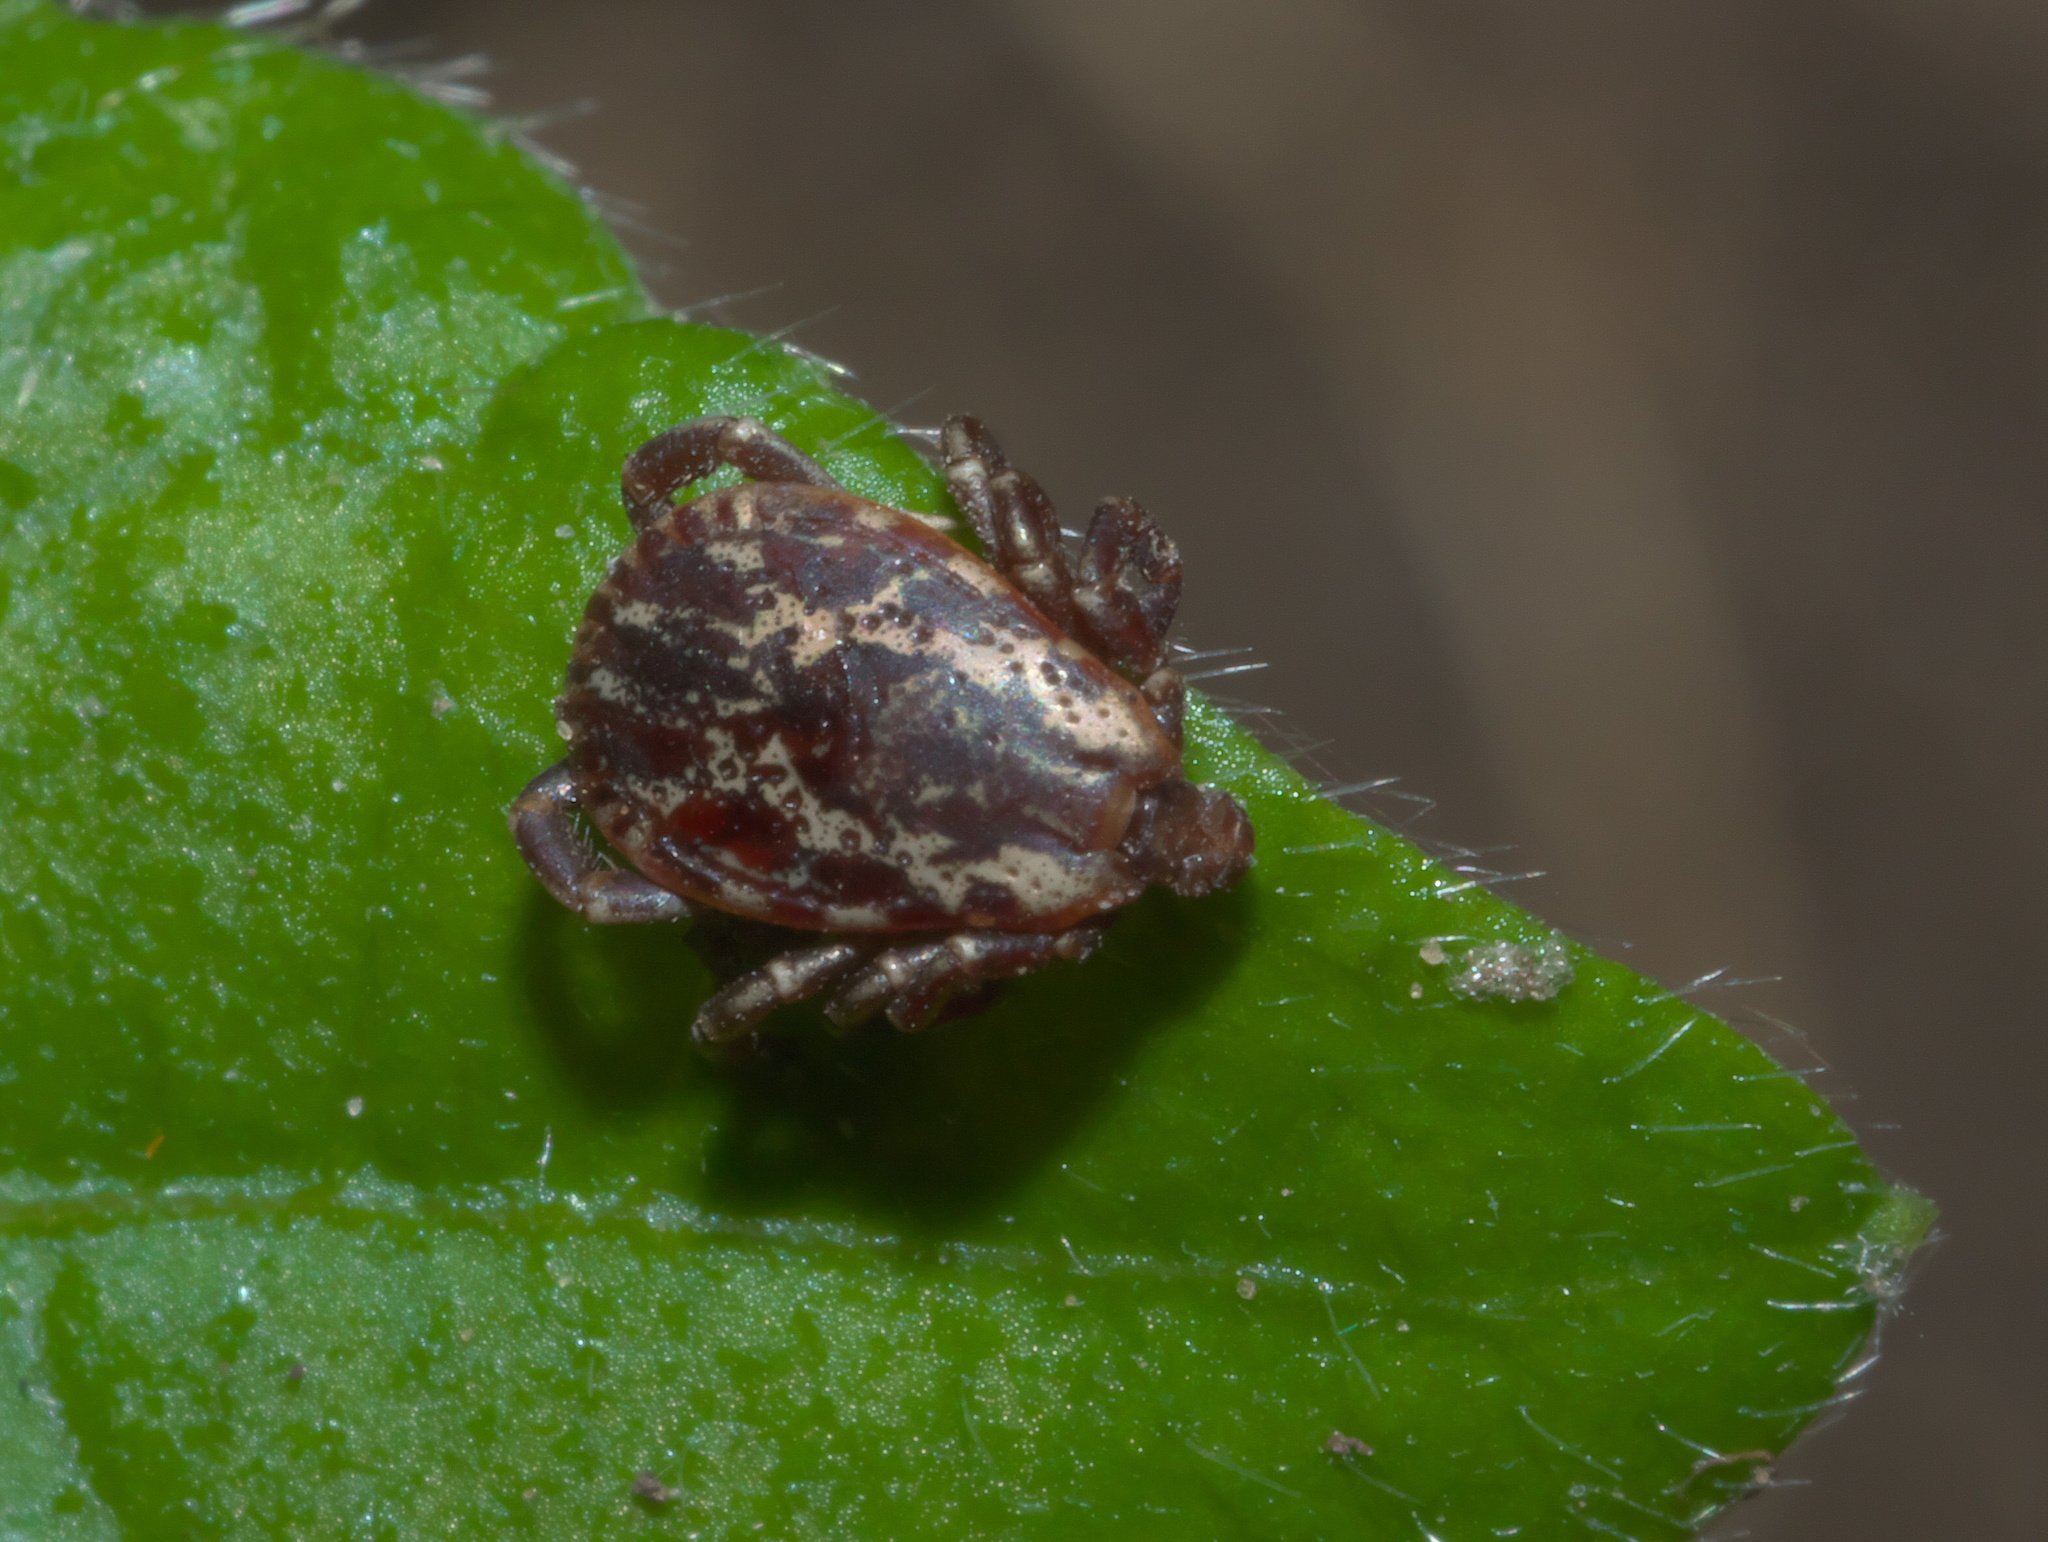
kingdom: Animalia
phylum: Arthropoda
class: Arachnida
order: Ixodida
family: Ixodidae
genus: Dermacentor
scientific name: Dermacentor variabilis
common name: American dog tick
